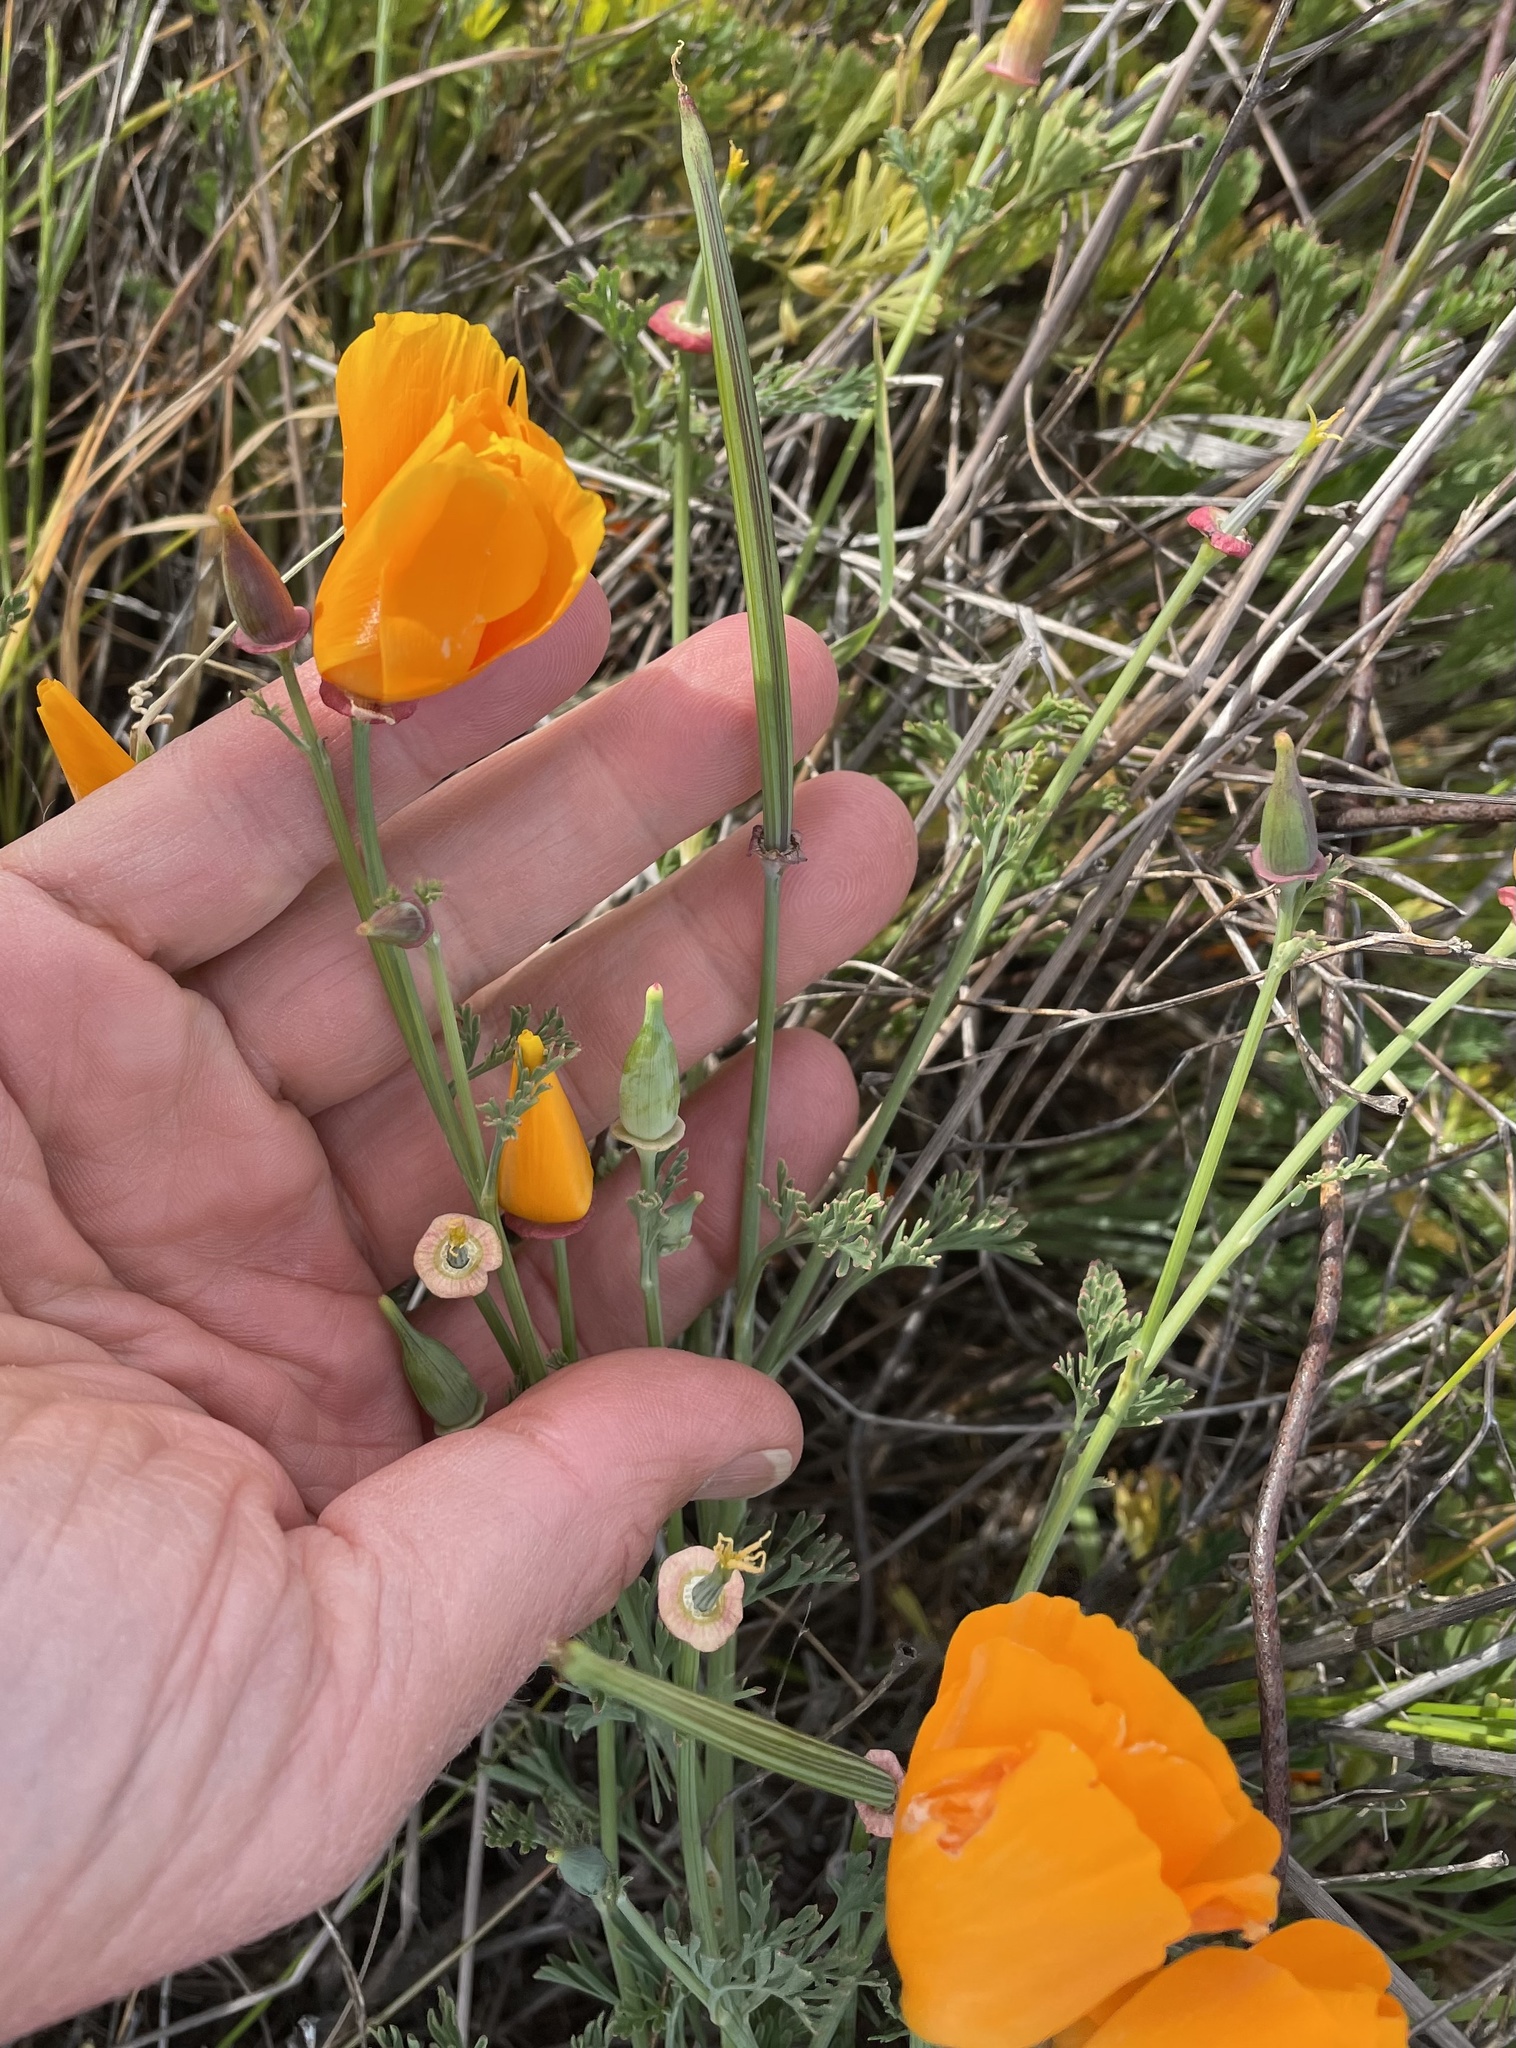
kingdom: Plantae
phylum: Tracheophyta
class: Magnoliopsida
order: Ranunculales
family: Papaveraceae
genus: Eschscholzia
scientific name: Eschscholzia californica
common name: California poppy
